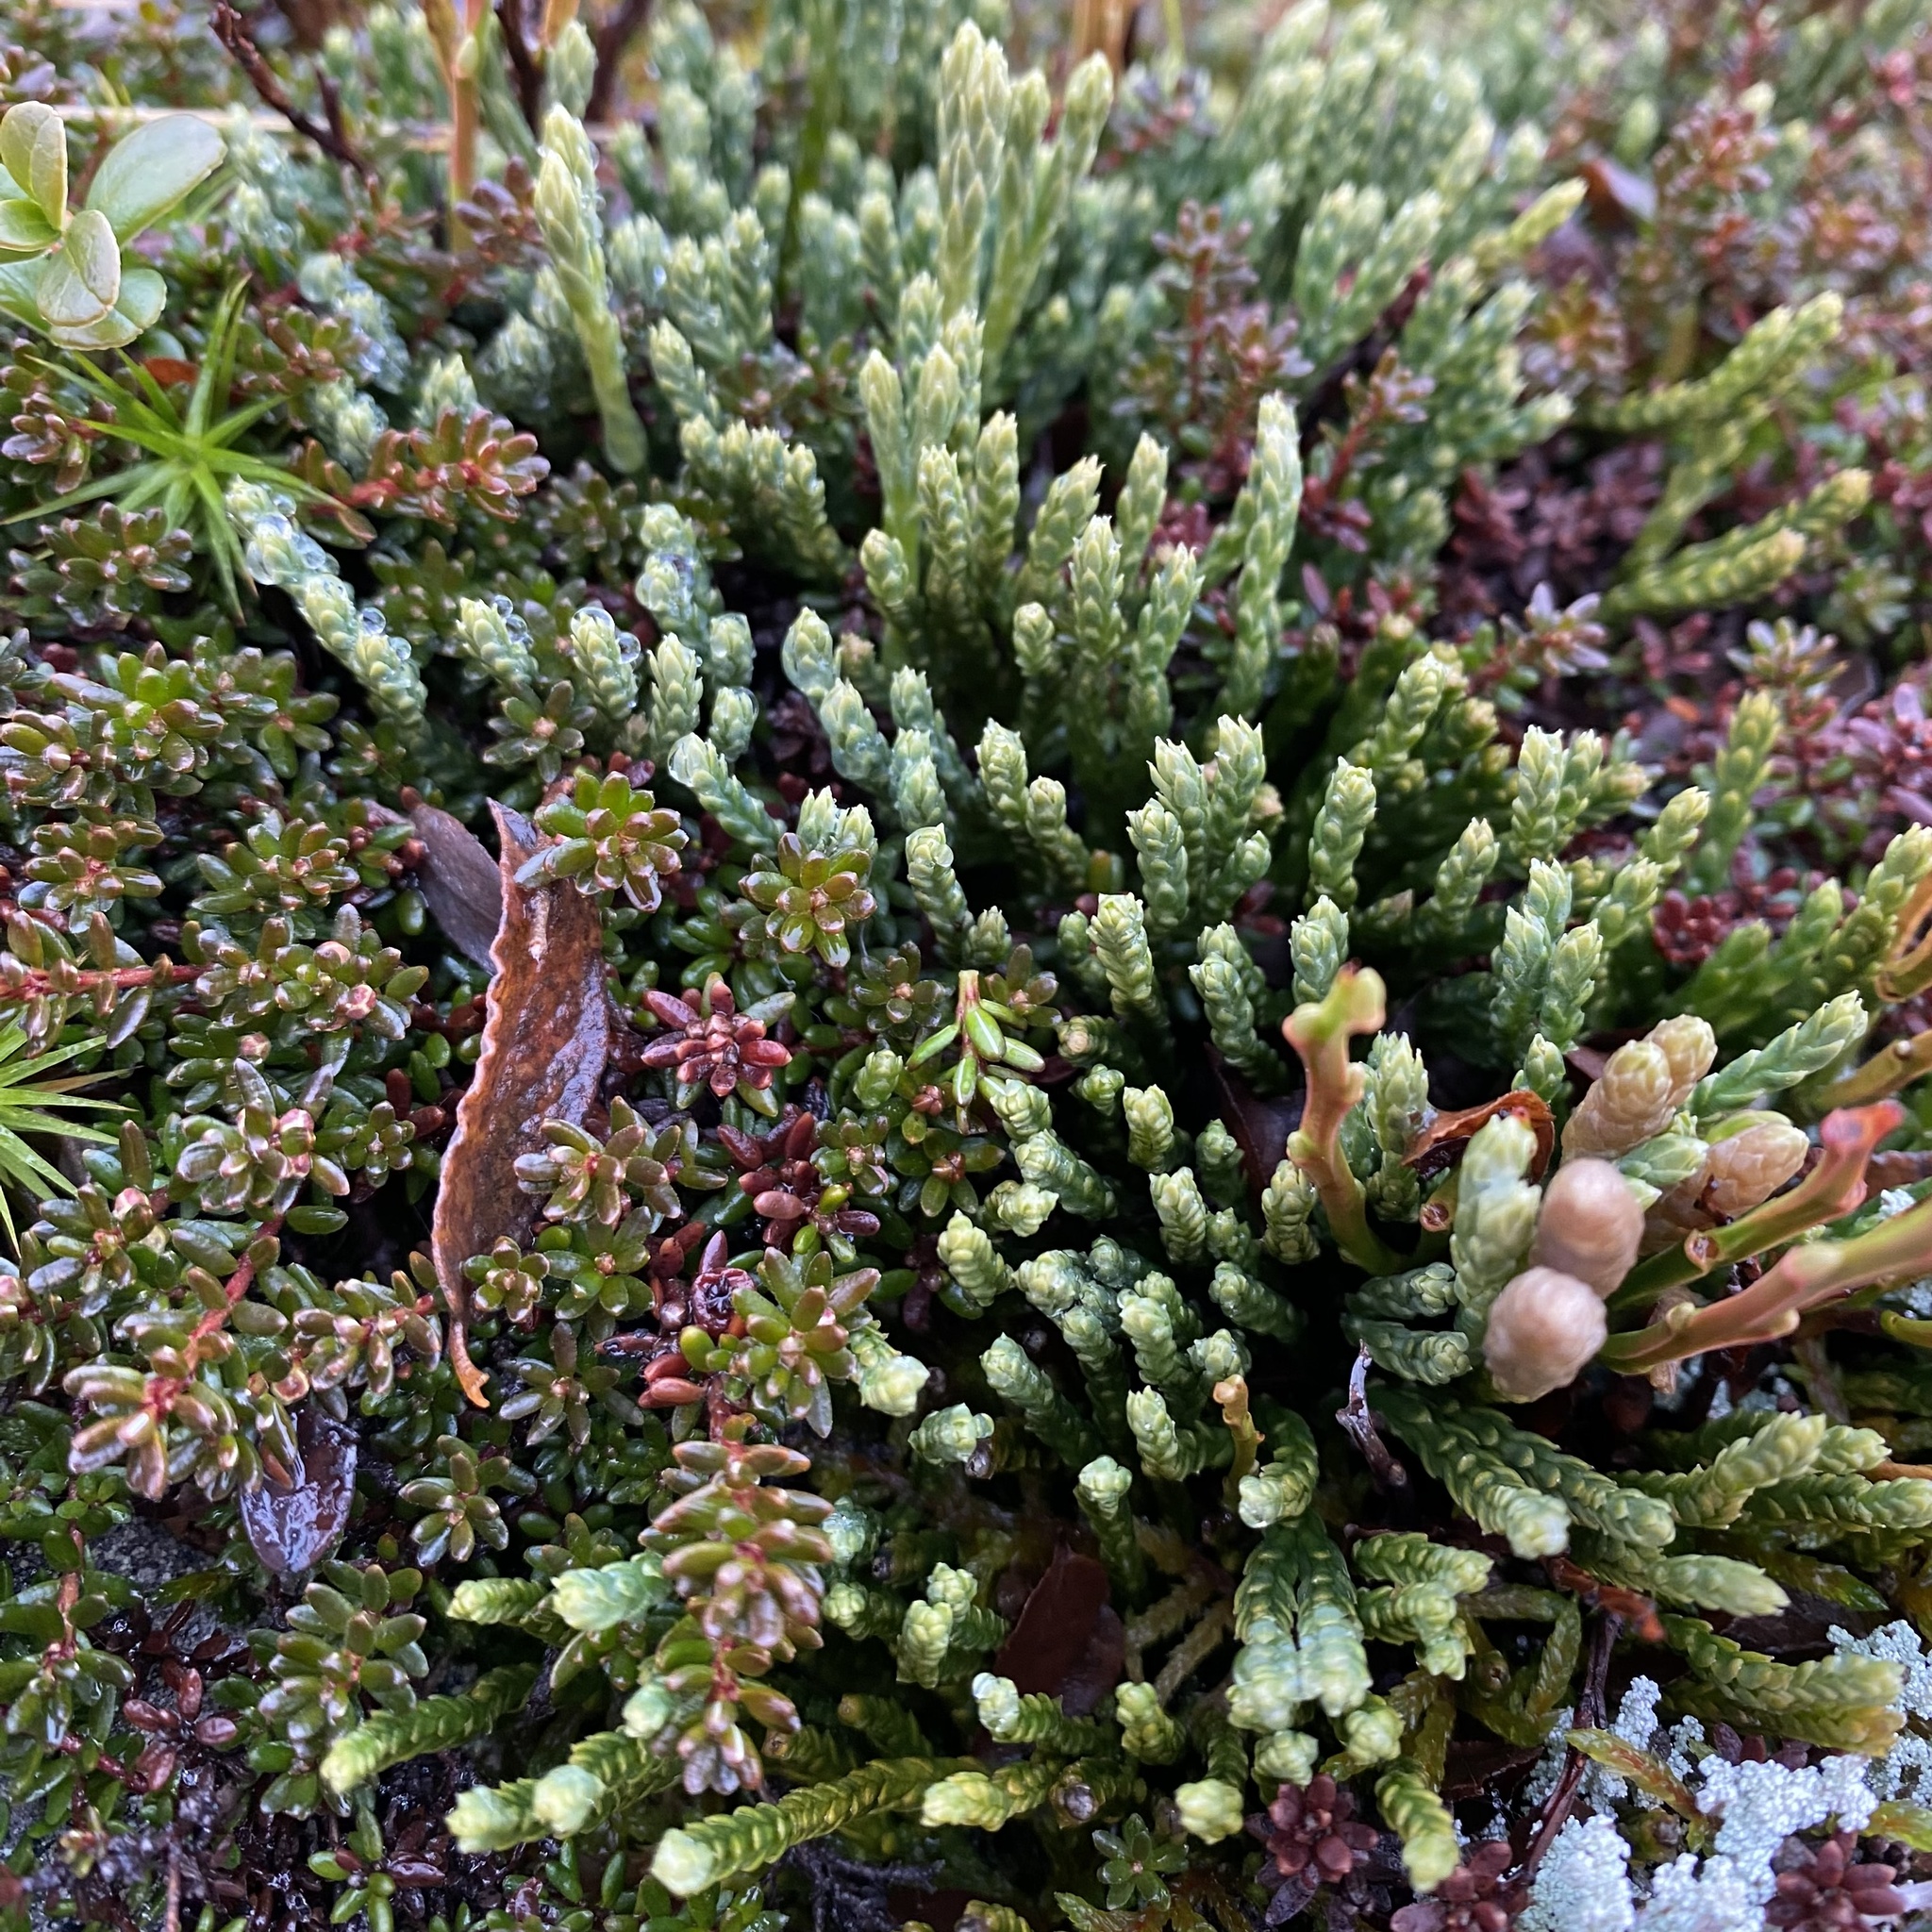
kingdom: Plantae
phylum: Tracheophyta
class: Lycopodiopsida
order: Lycopodiales
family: Lycopodiaceae
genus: Diphasiastrum
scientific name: Diphasiastrum alpinum
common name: Alpine clubmoss
